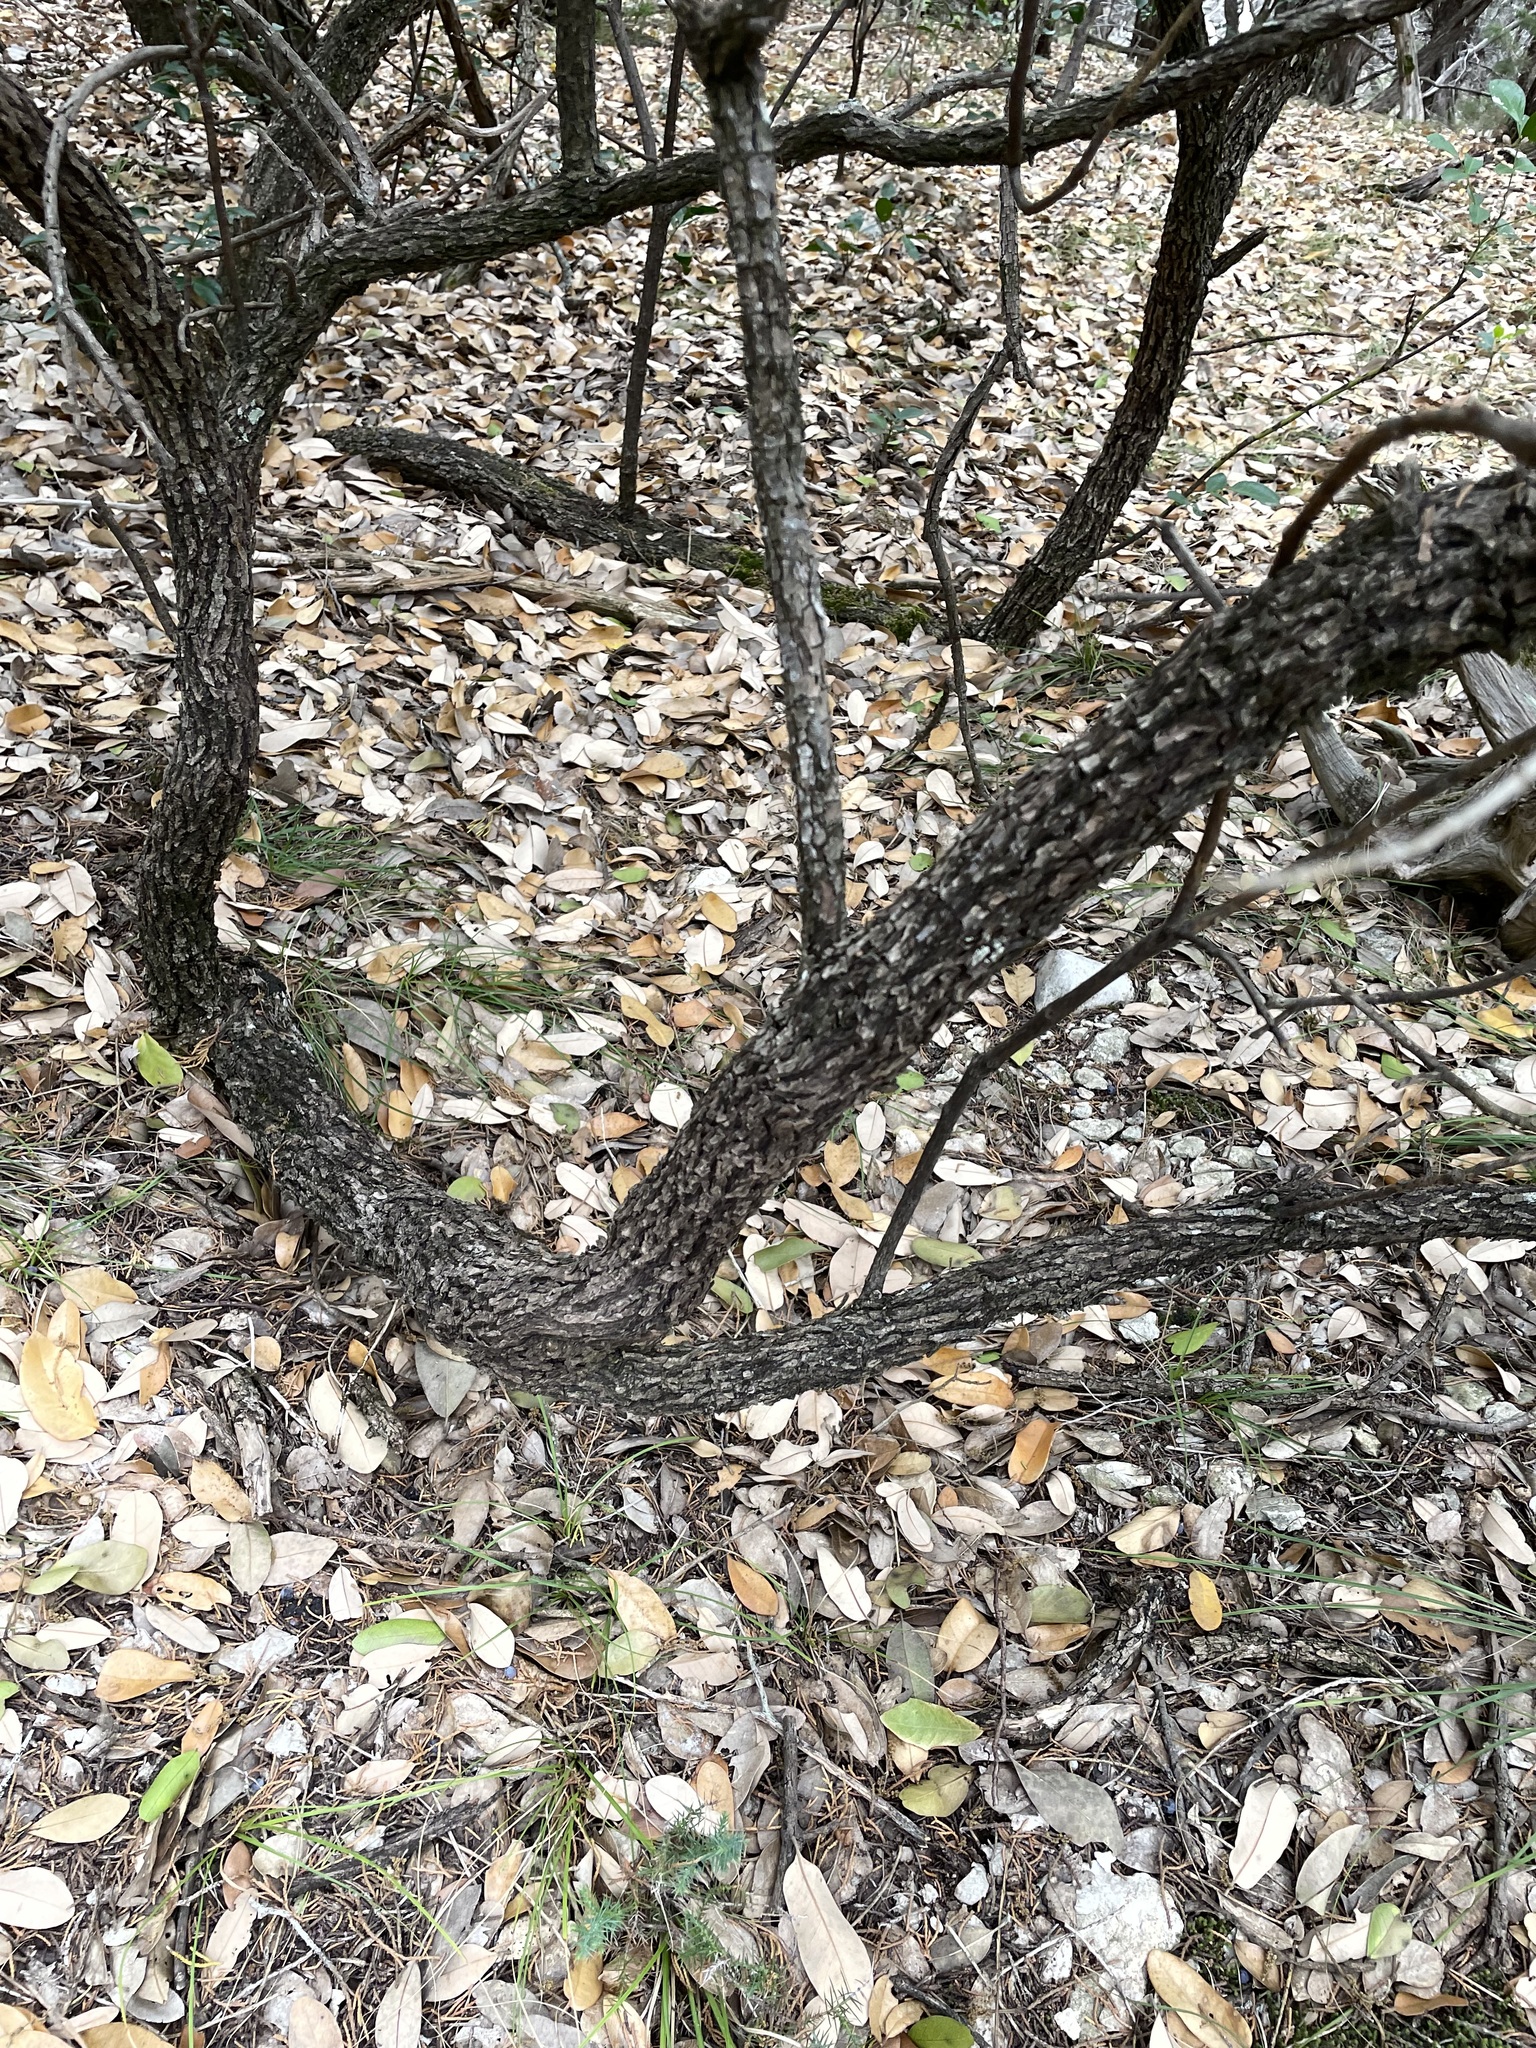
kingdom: Plantae
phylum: Tracheophyta
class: Magnoliopsida
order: Fabales
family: Fabaceae
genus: Dermatophyllum
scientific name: Dermatophyllum secundiflorum
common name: Texas-mountain-laurel
